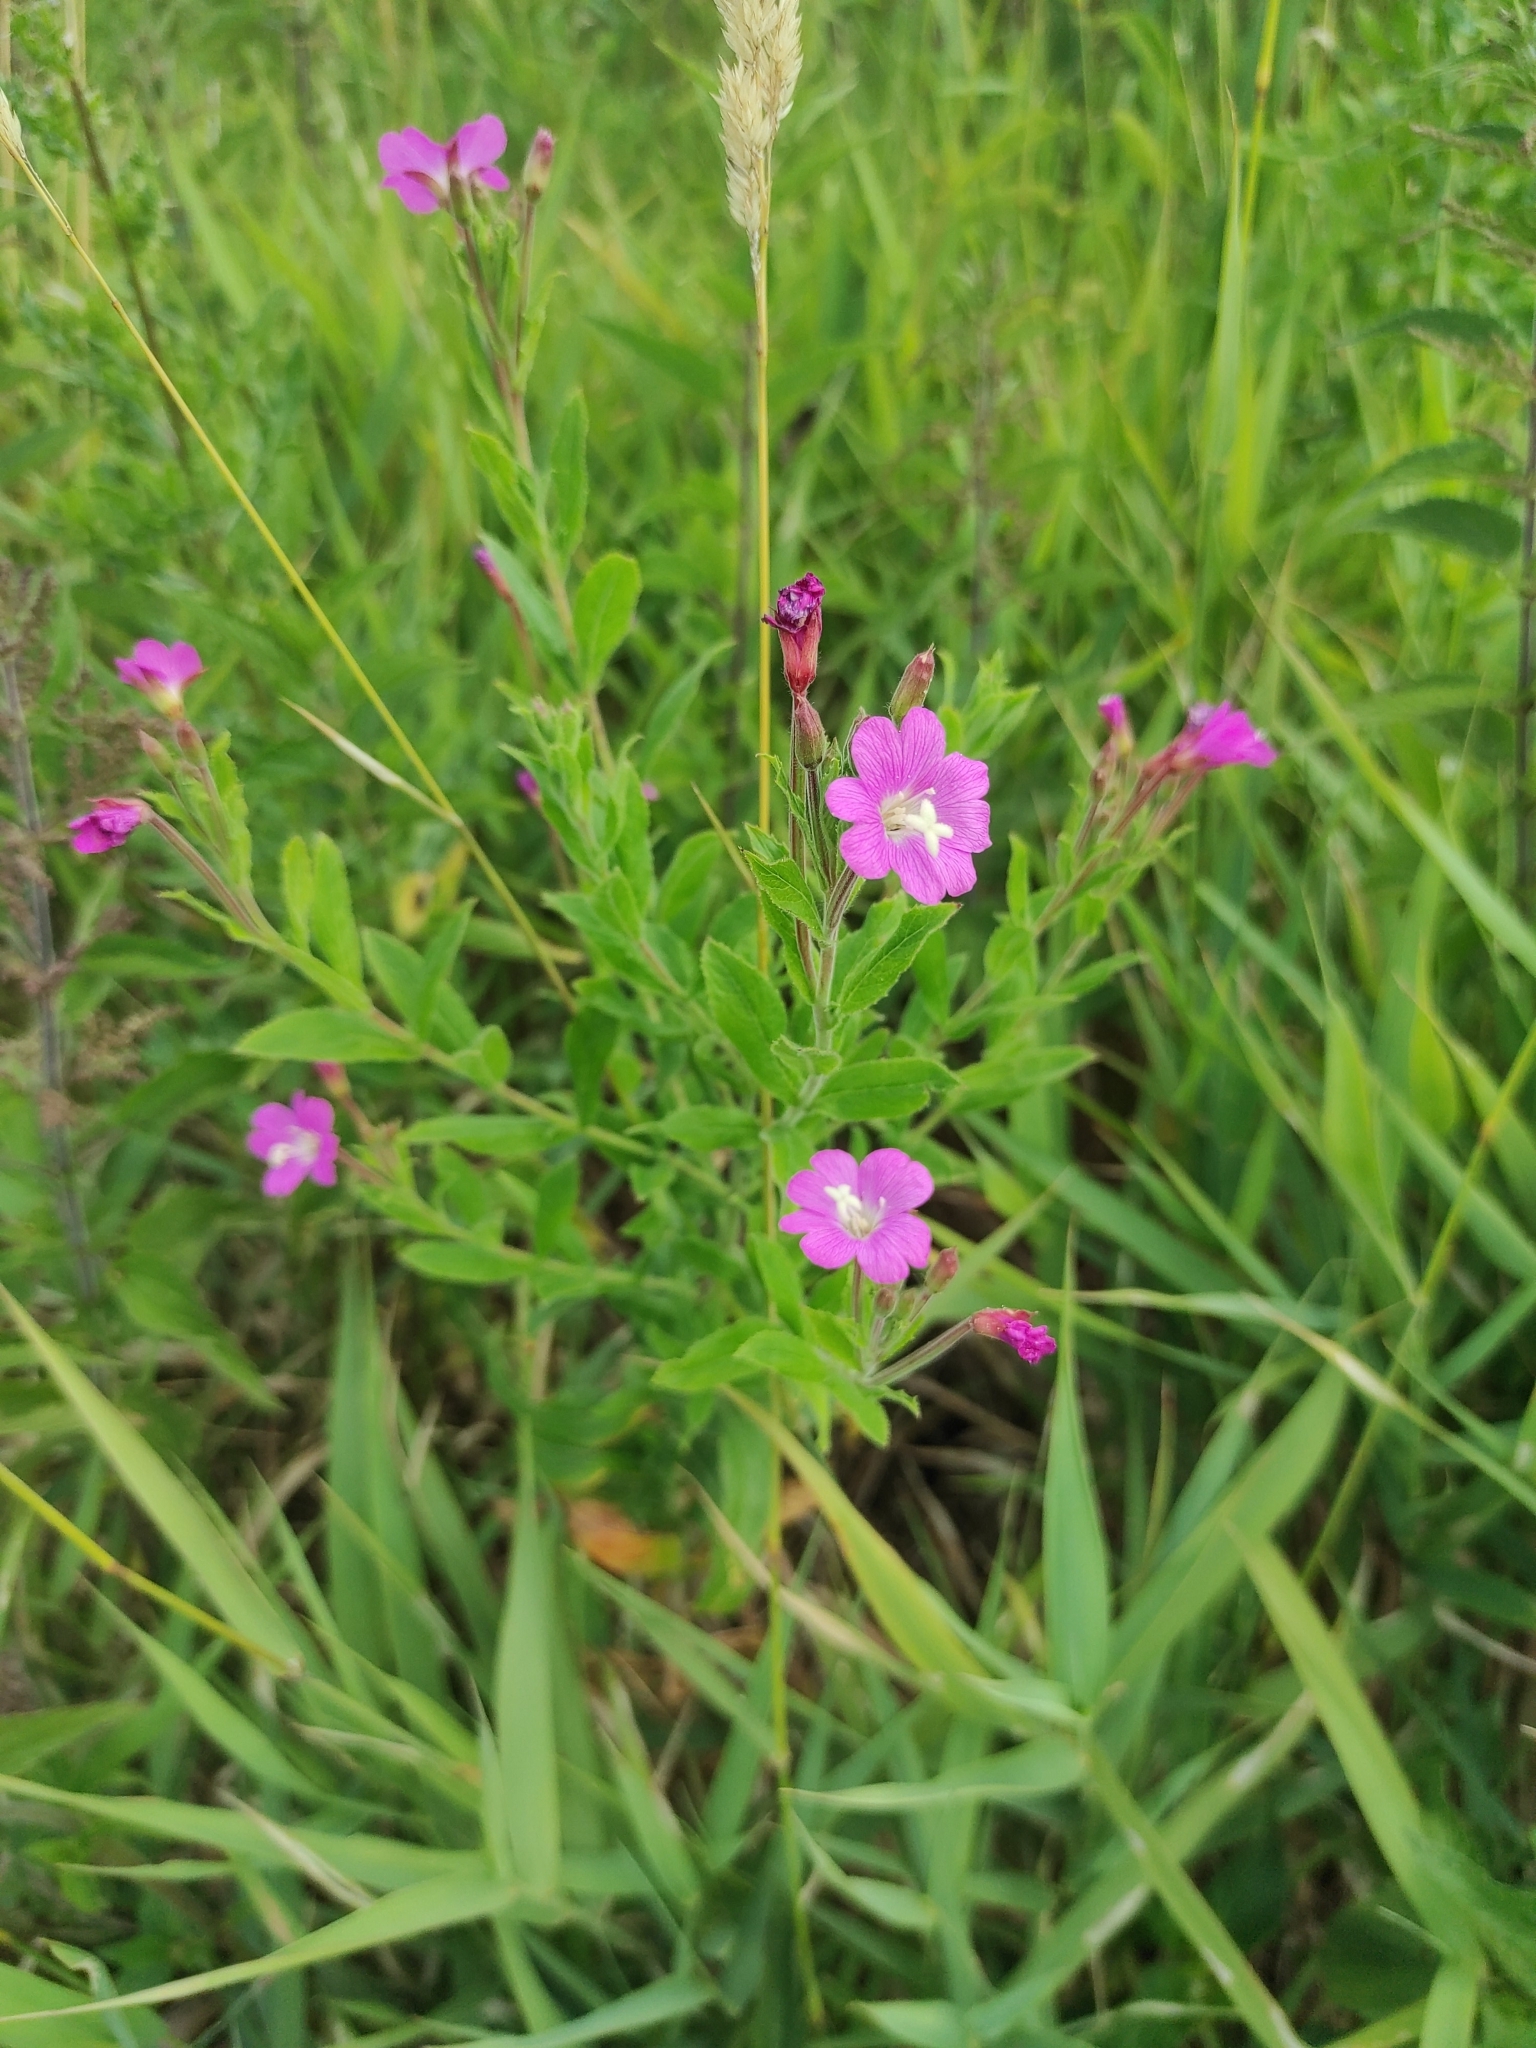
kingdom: Plantae
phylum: Tracheophyta
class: Magnoliopsida
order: Myrtales
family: Onagraceae
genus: Epilobium
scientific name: Epilobium hirsutum
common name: Great willowherb
